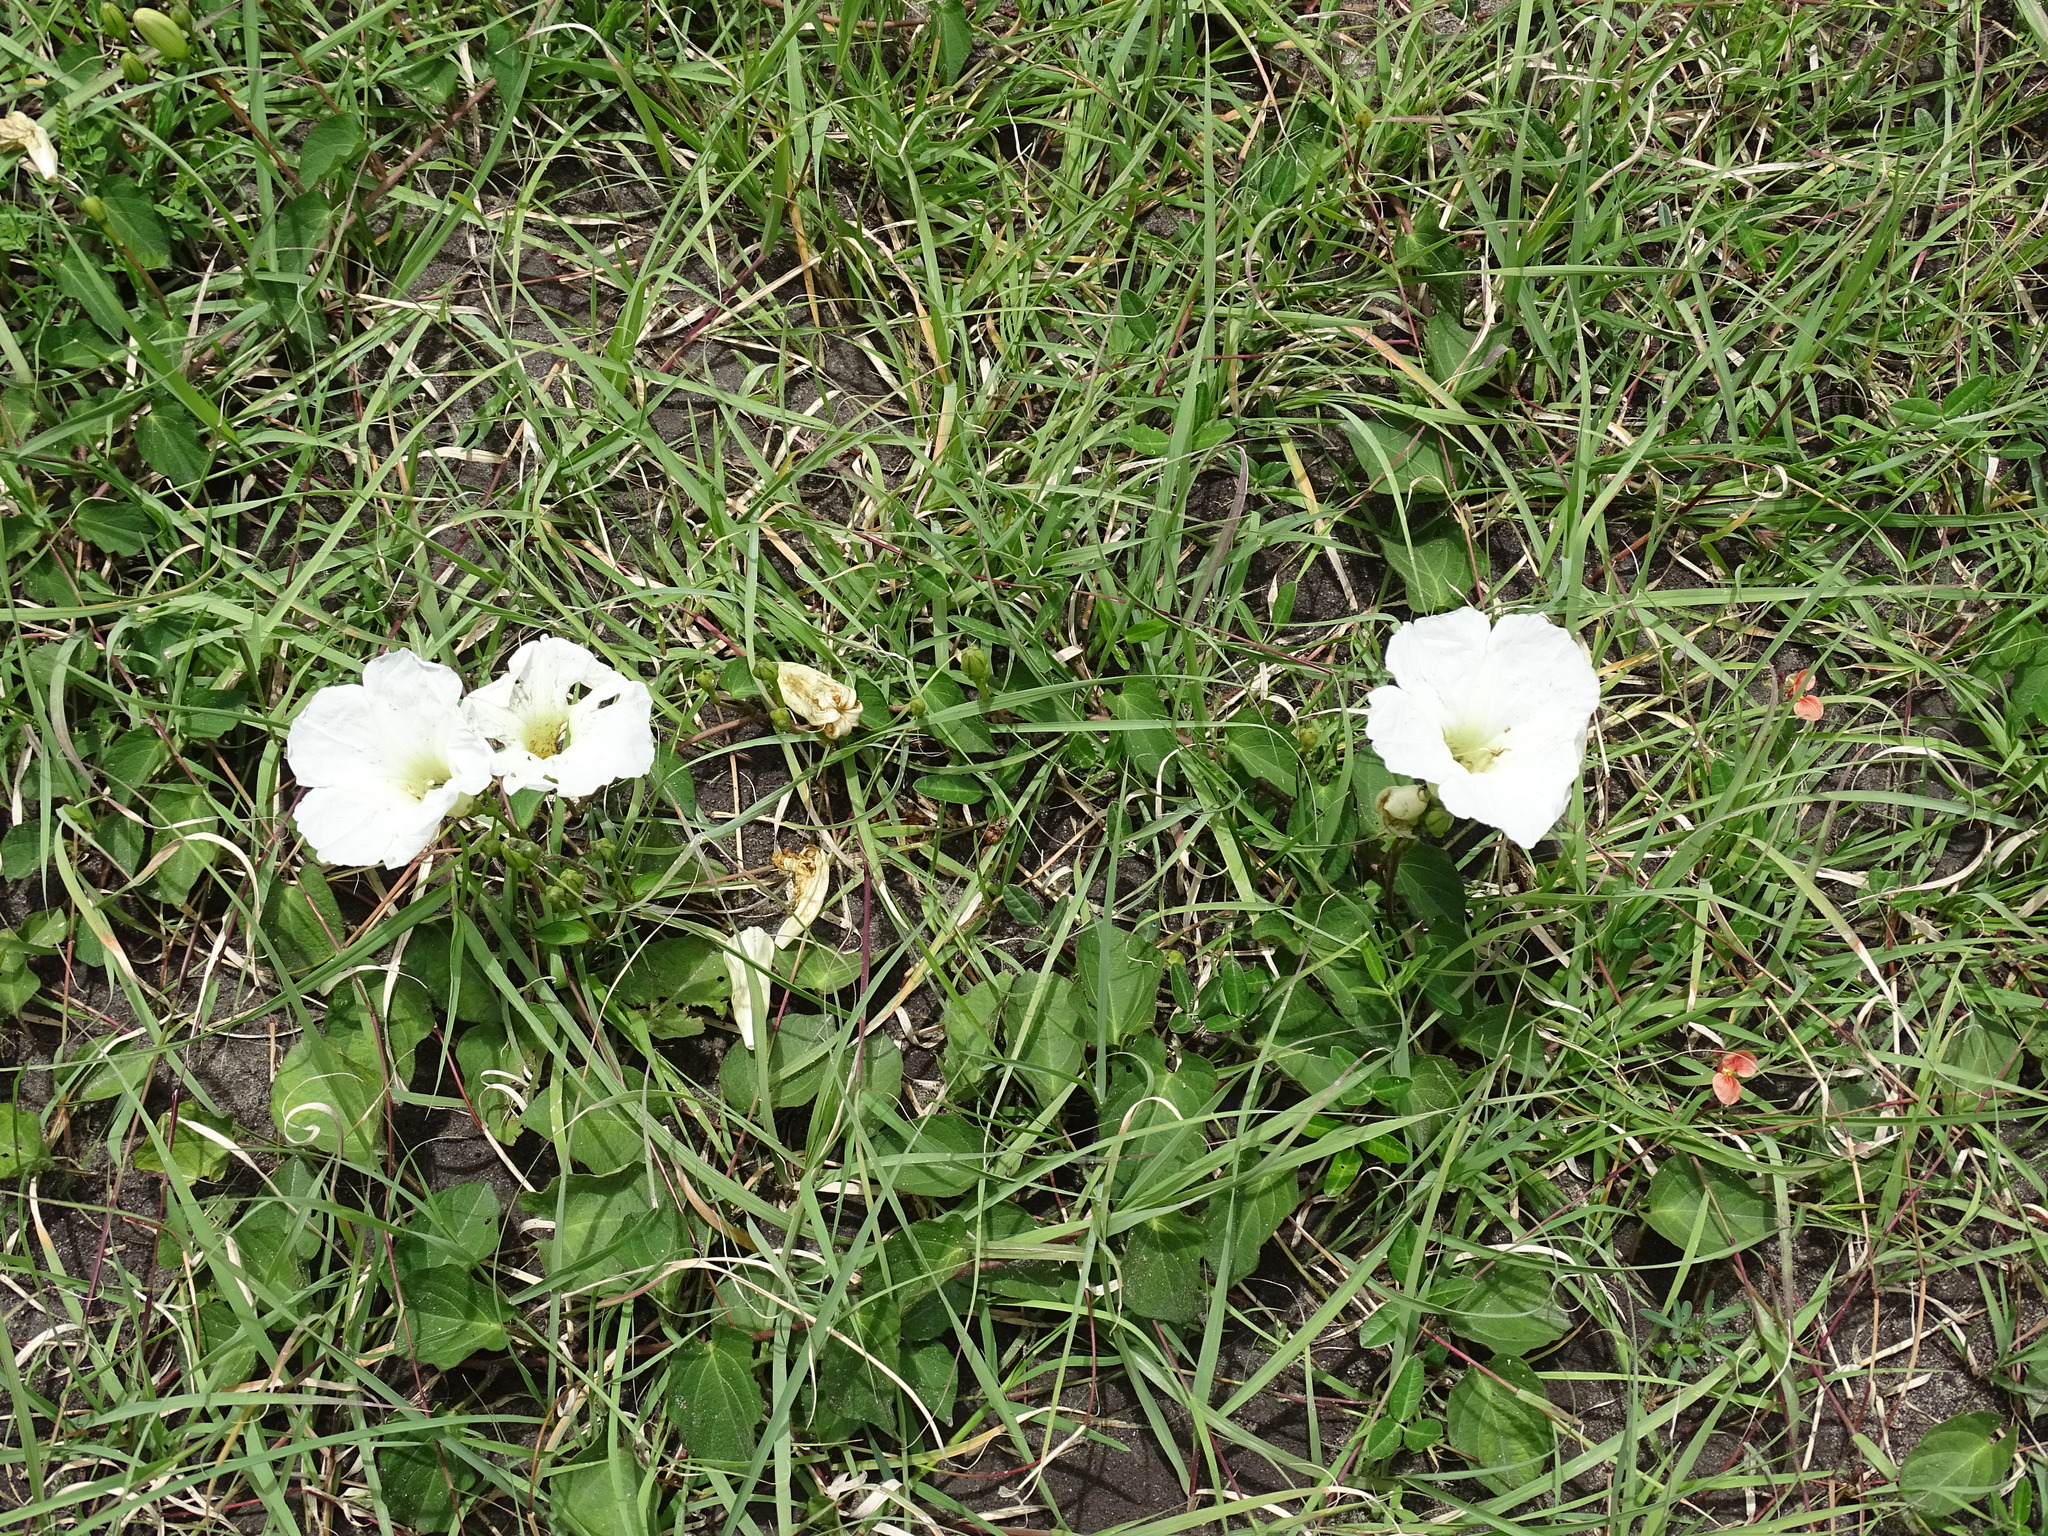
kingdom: Plantae
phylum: Tracheophyta
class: Magnoliopsida
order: Solanales
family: Convolvulaceae
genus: Ipomoea
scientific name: Ipomoea proxima
